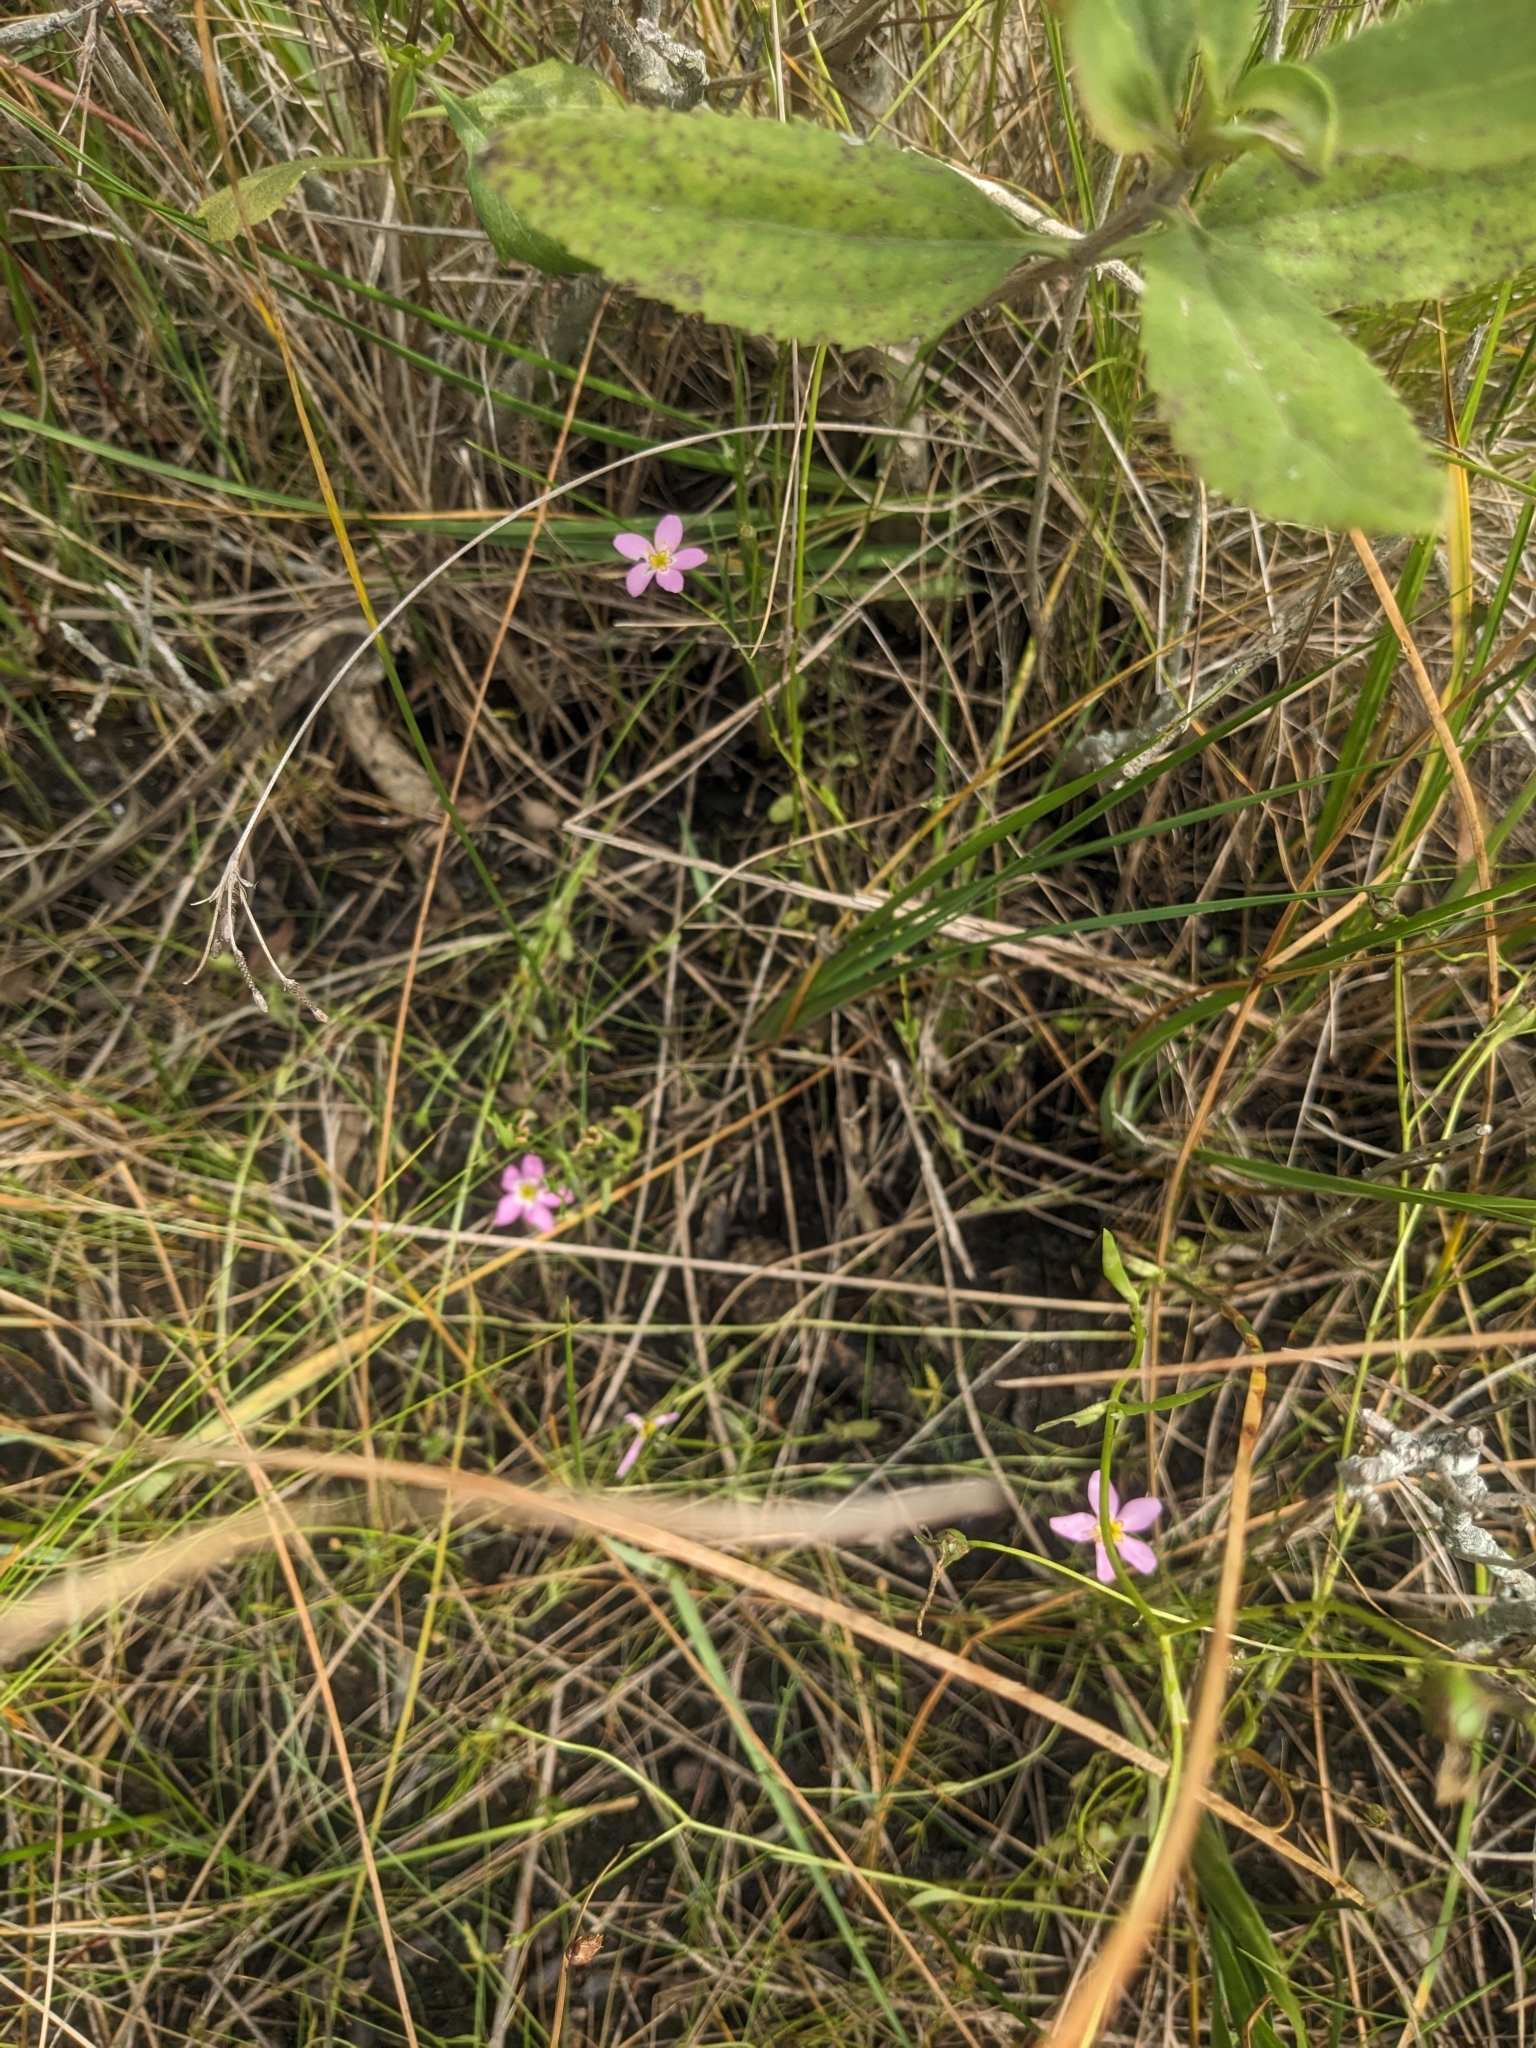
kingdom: Plantae
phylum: Tracheophyta
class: Magnoliopsida
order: Gentianales
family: Gentianaceae
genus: Sabatia
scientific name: Sabatia stellaris
